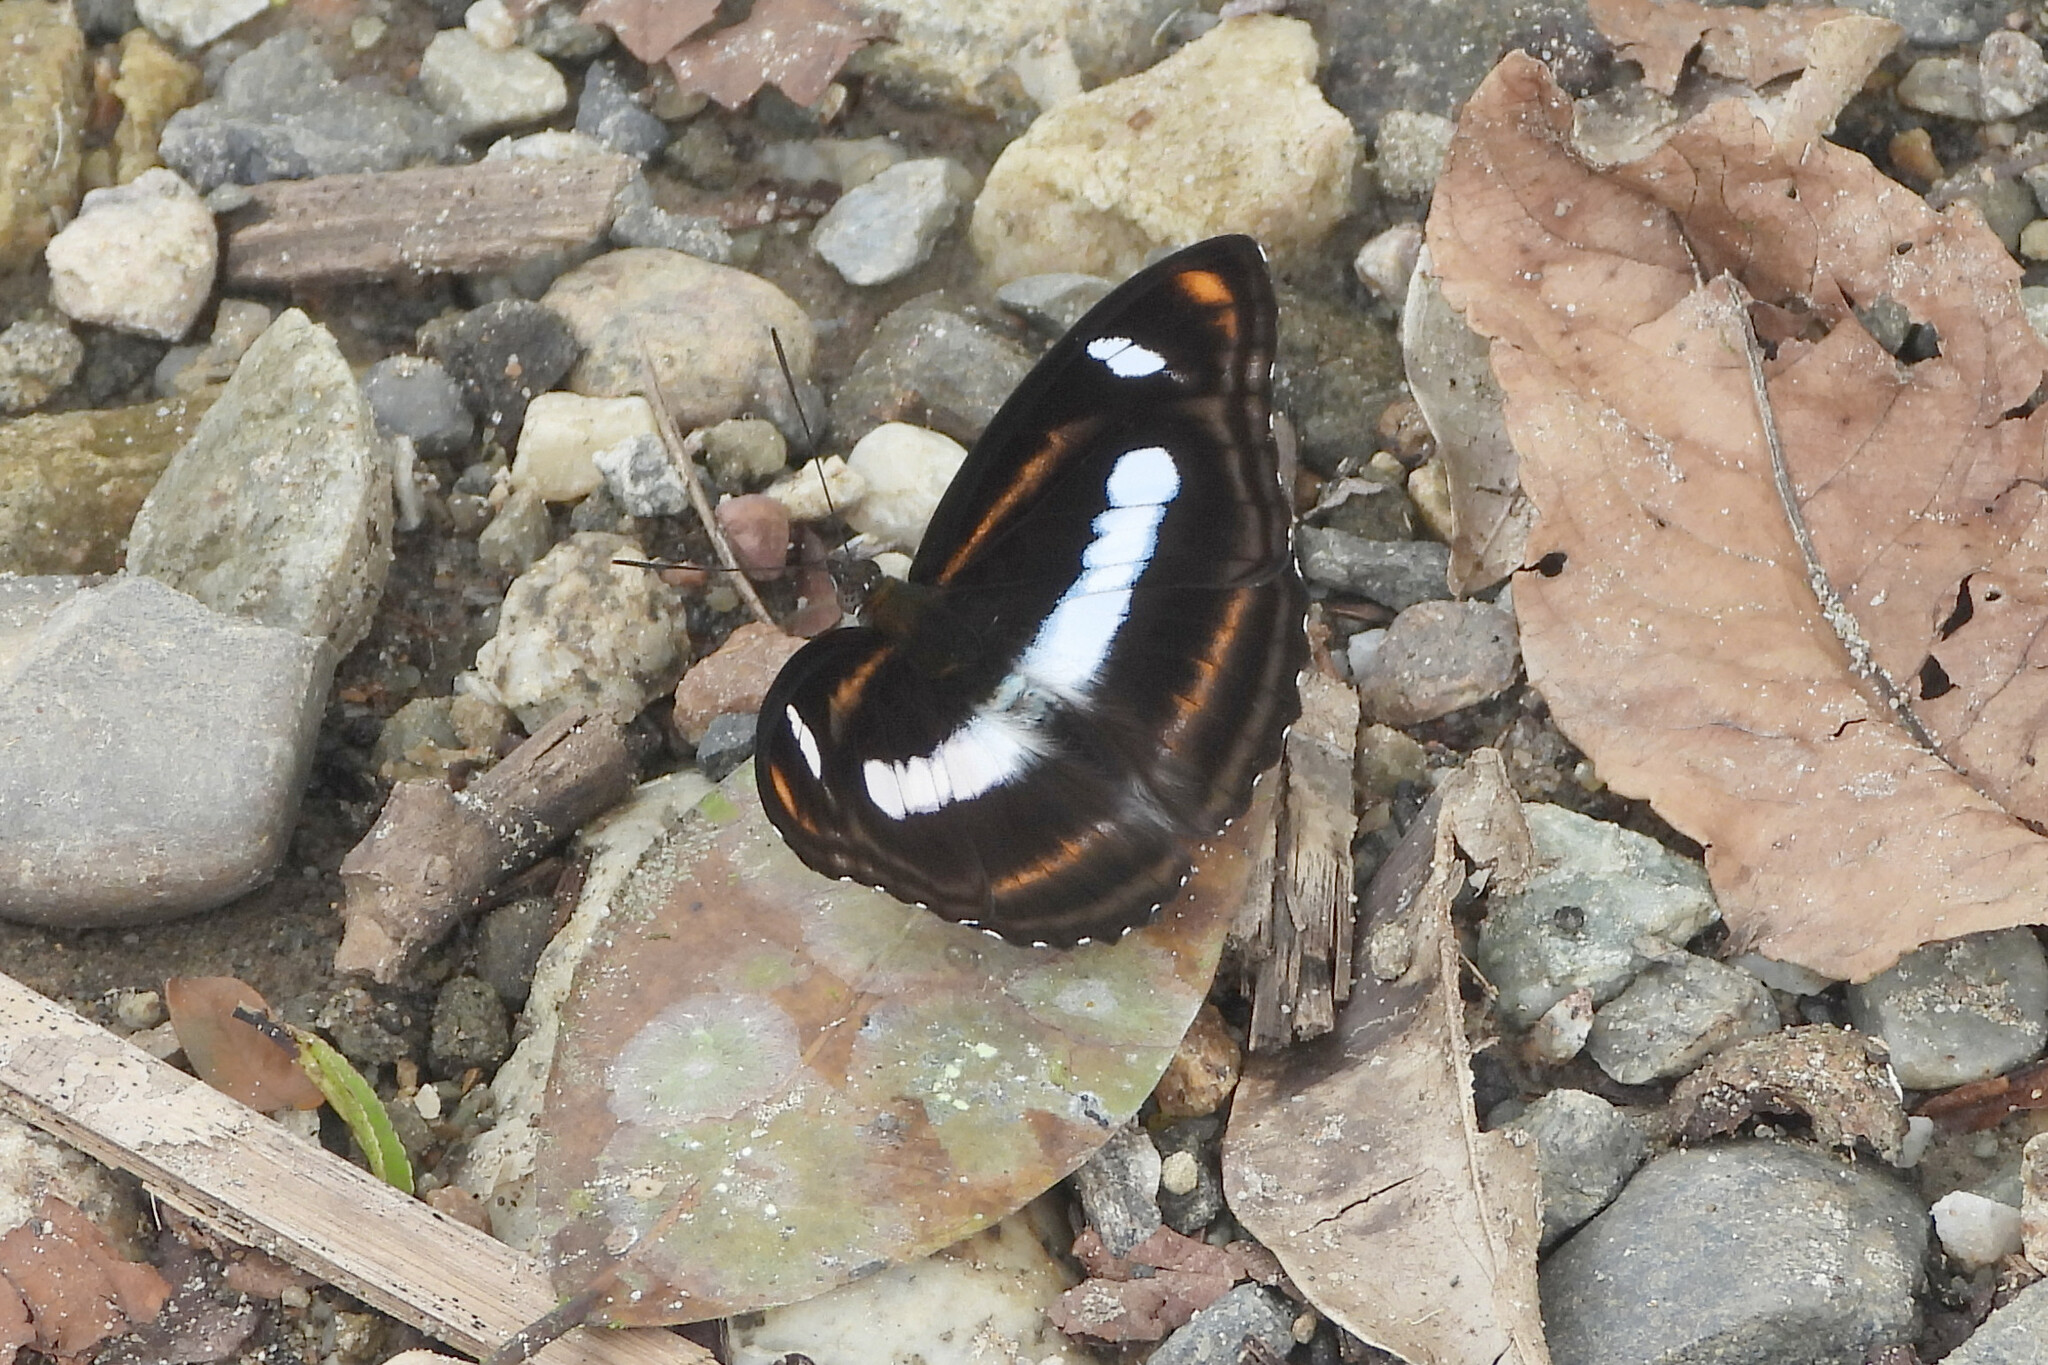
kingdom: Animalia
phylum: Arthropoda
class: Insecta
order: Lepidoptera
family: Nymphalidae
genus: Pantoporia
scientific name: Pantoporia cama
